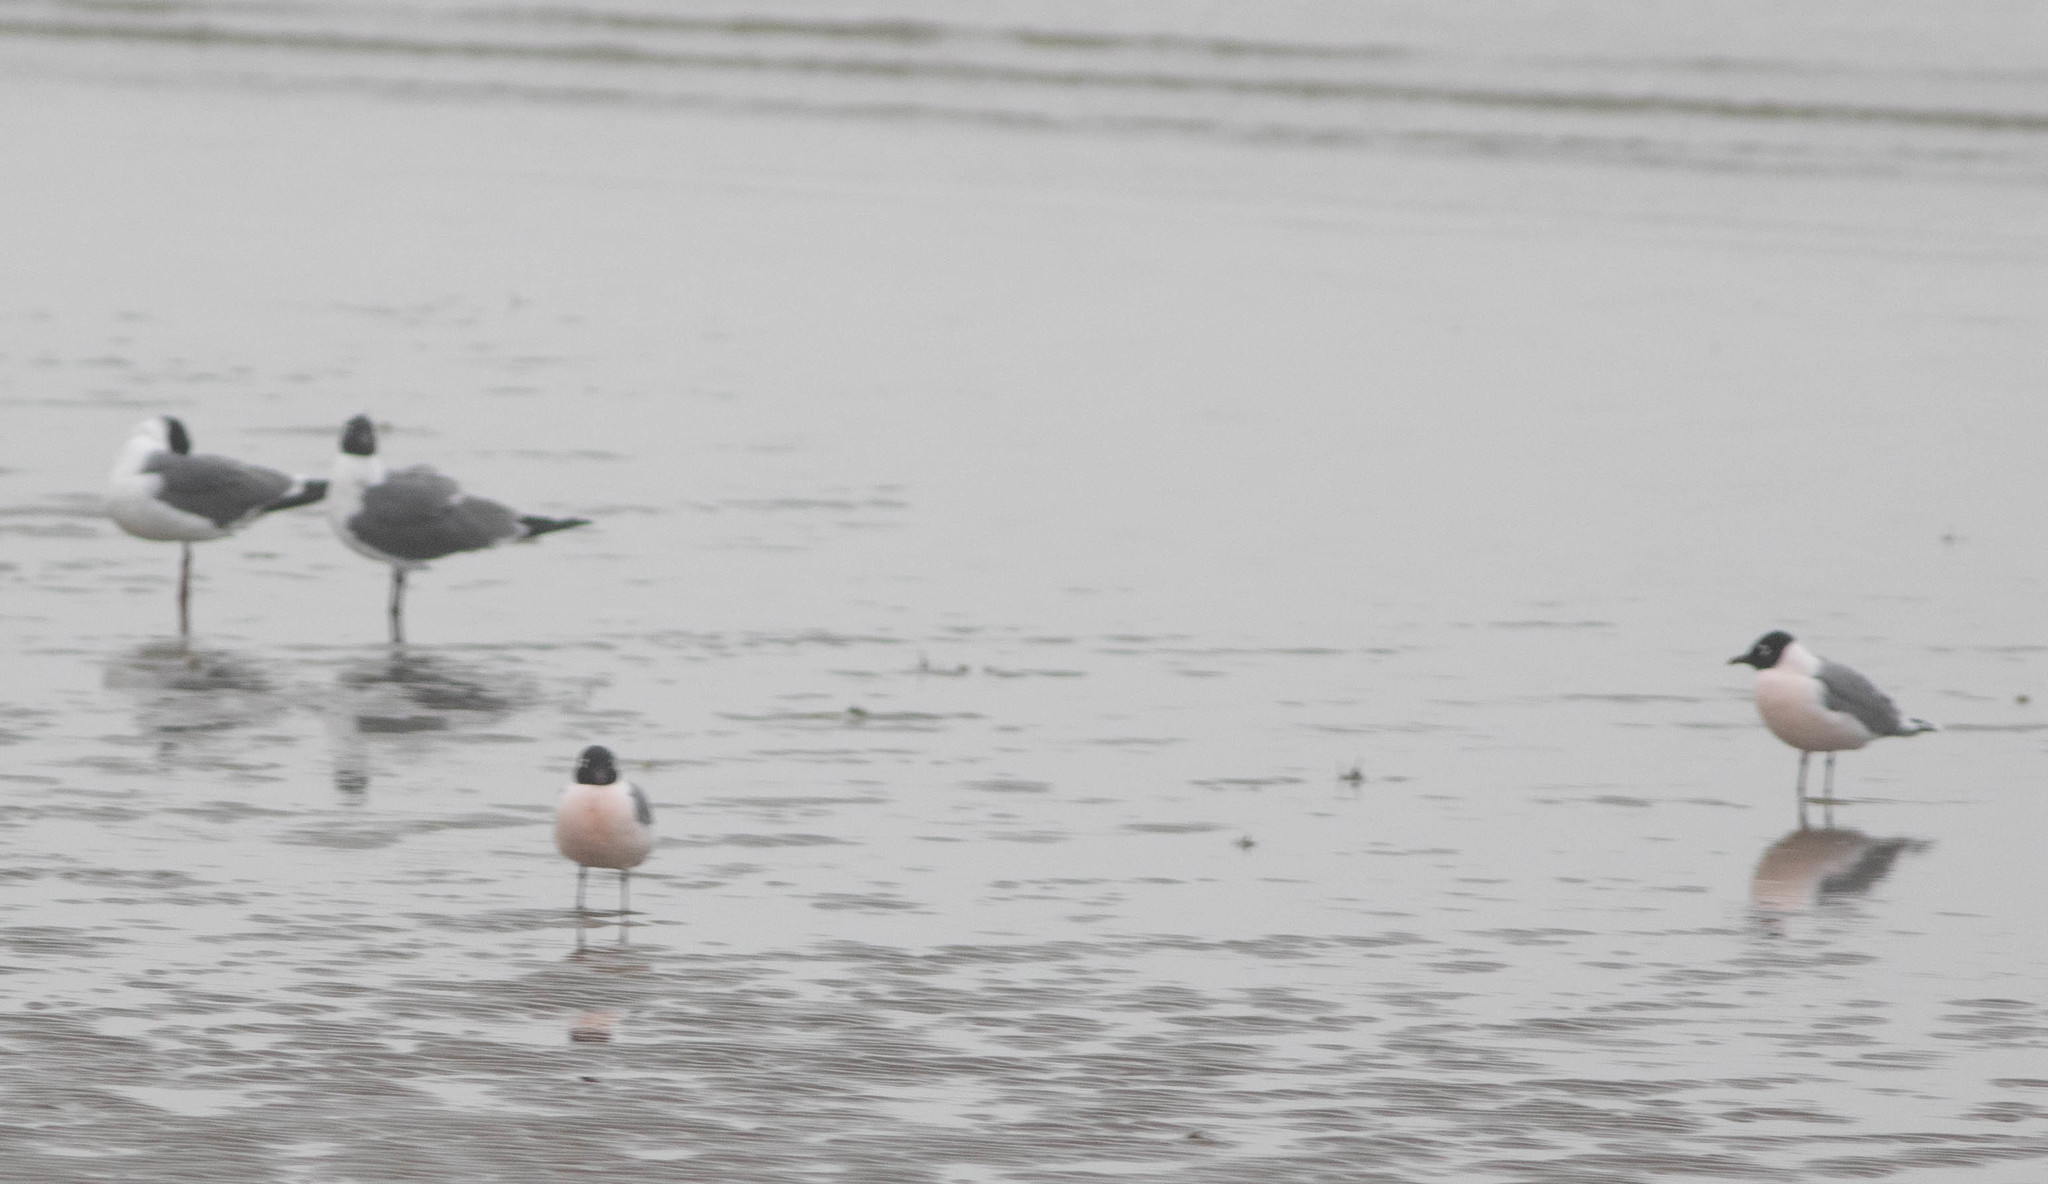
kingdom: Animalia
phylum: Chordata
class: Aves
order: Charadriiformes
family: Laridae
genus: Leucophaeus
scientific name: Leucophaeus pipixcan
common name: Franklin's gull
